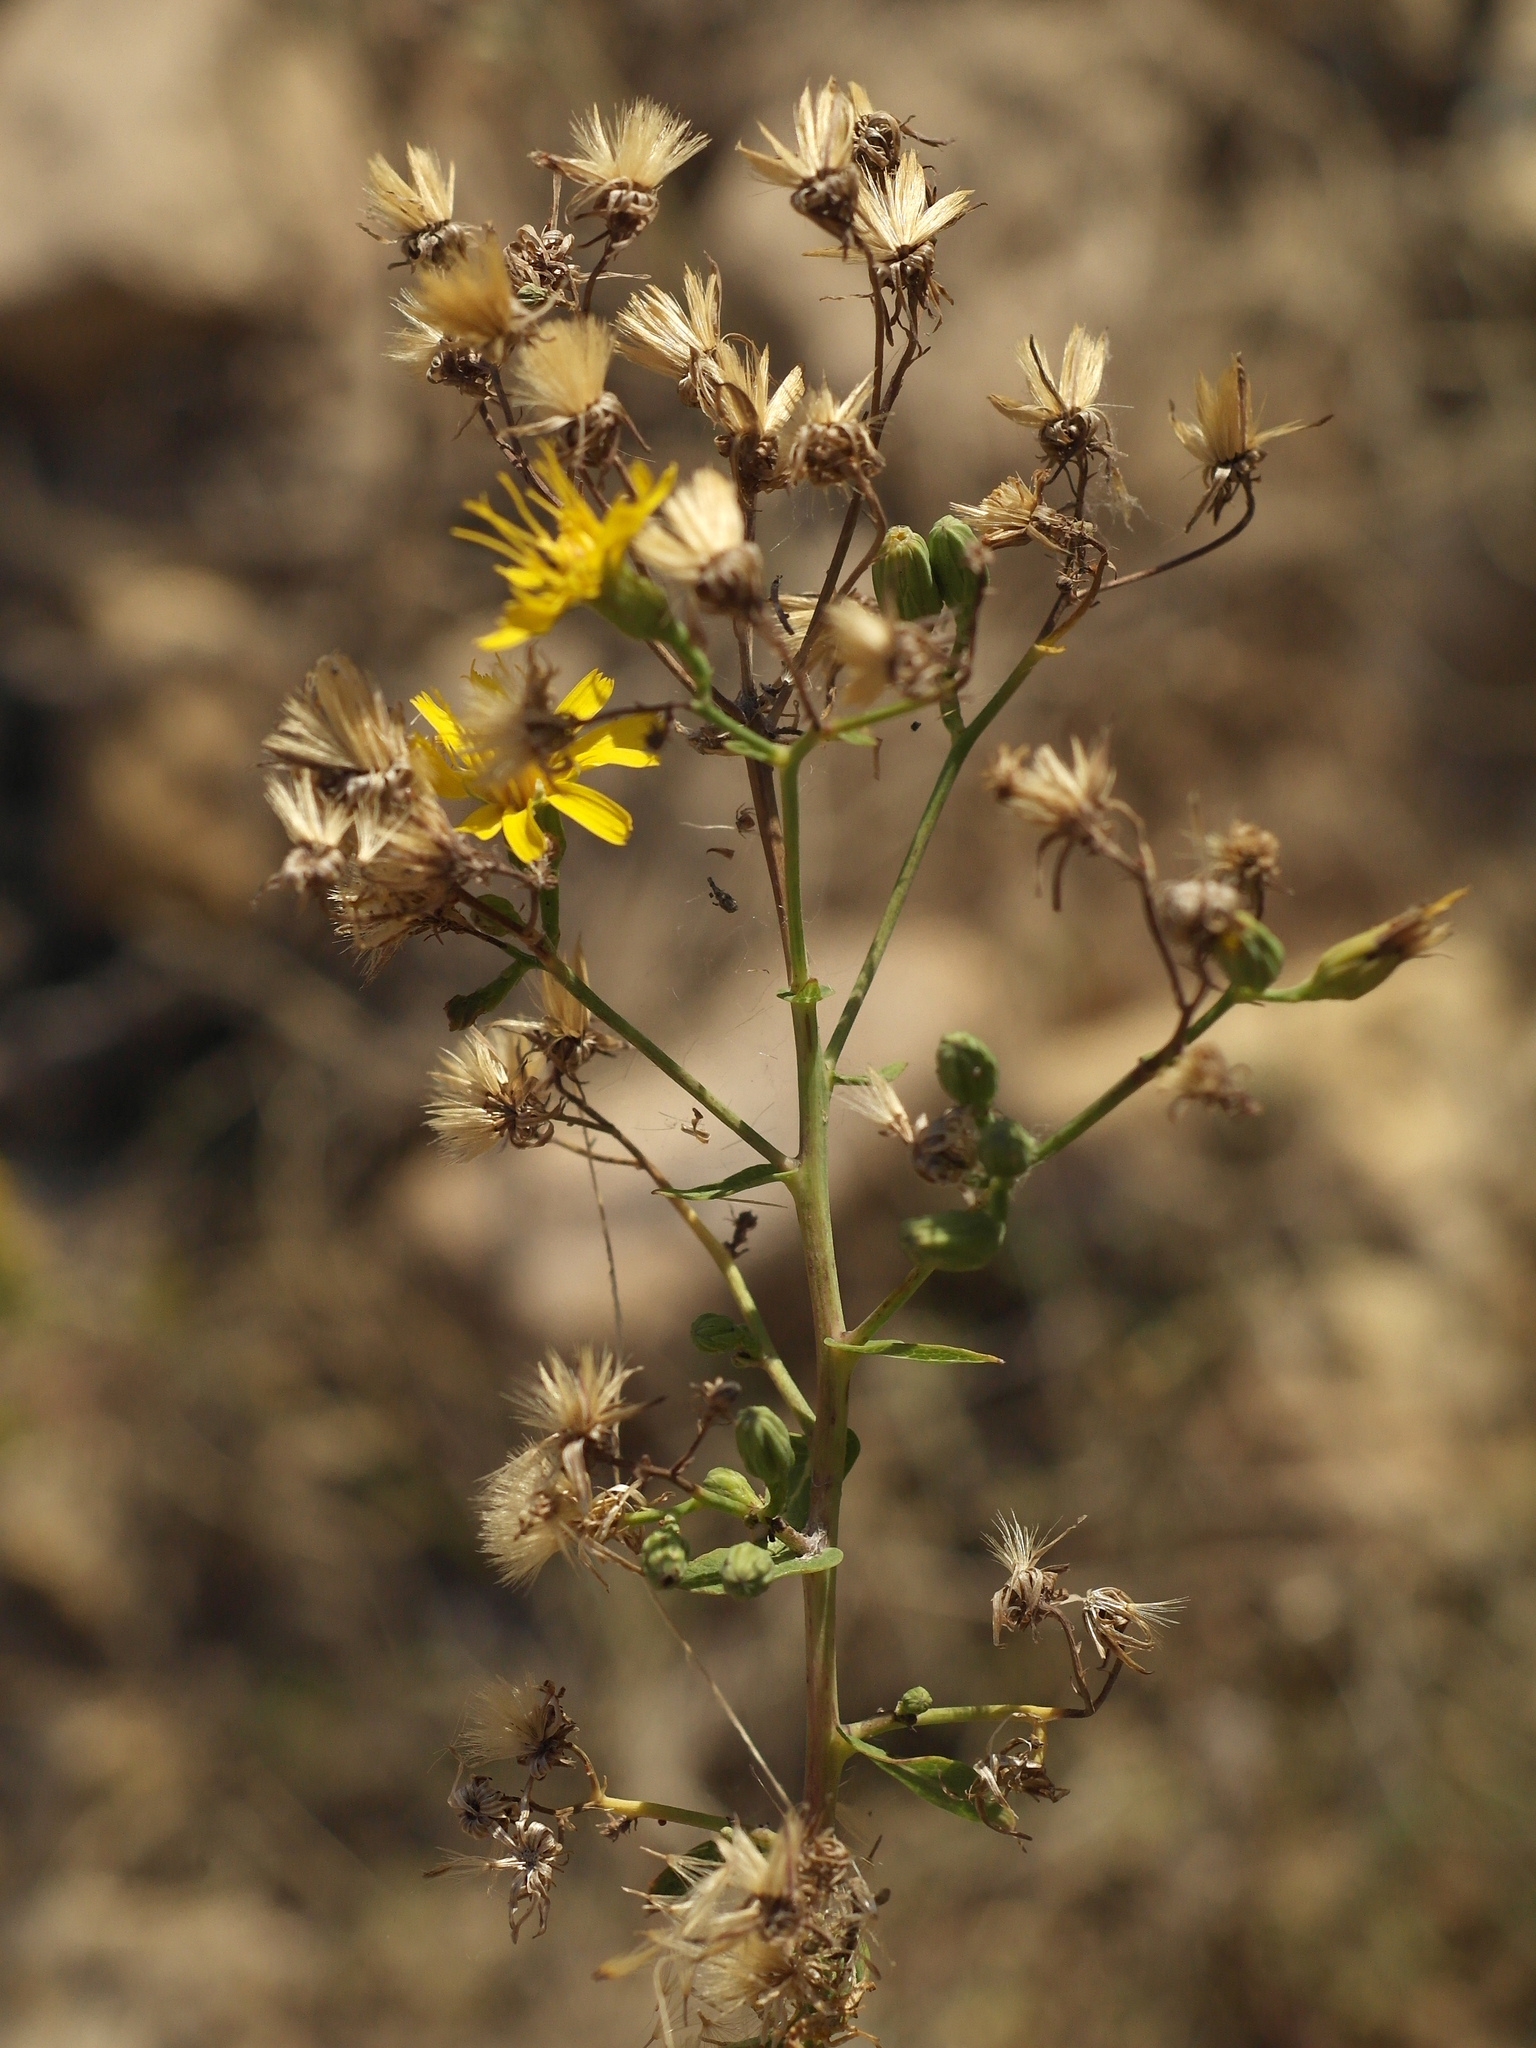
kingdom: Plantae
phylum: Tracheophyta
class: Magnoliopsida
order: Asterales
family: Asteraceae
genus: Hieracium
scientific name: Hieracium robustum
